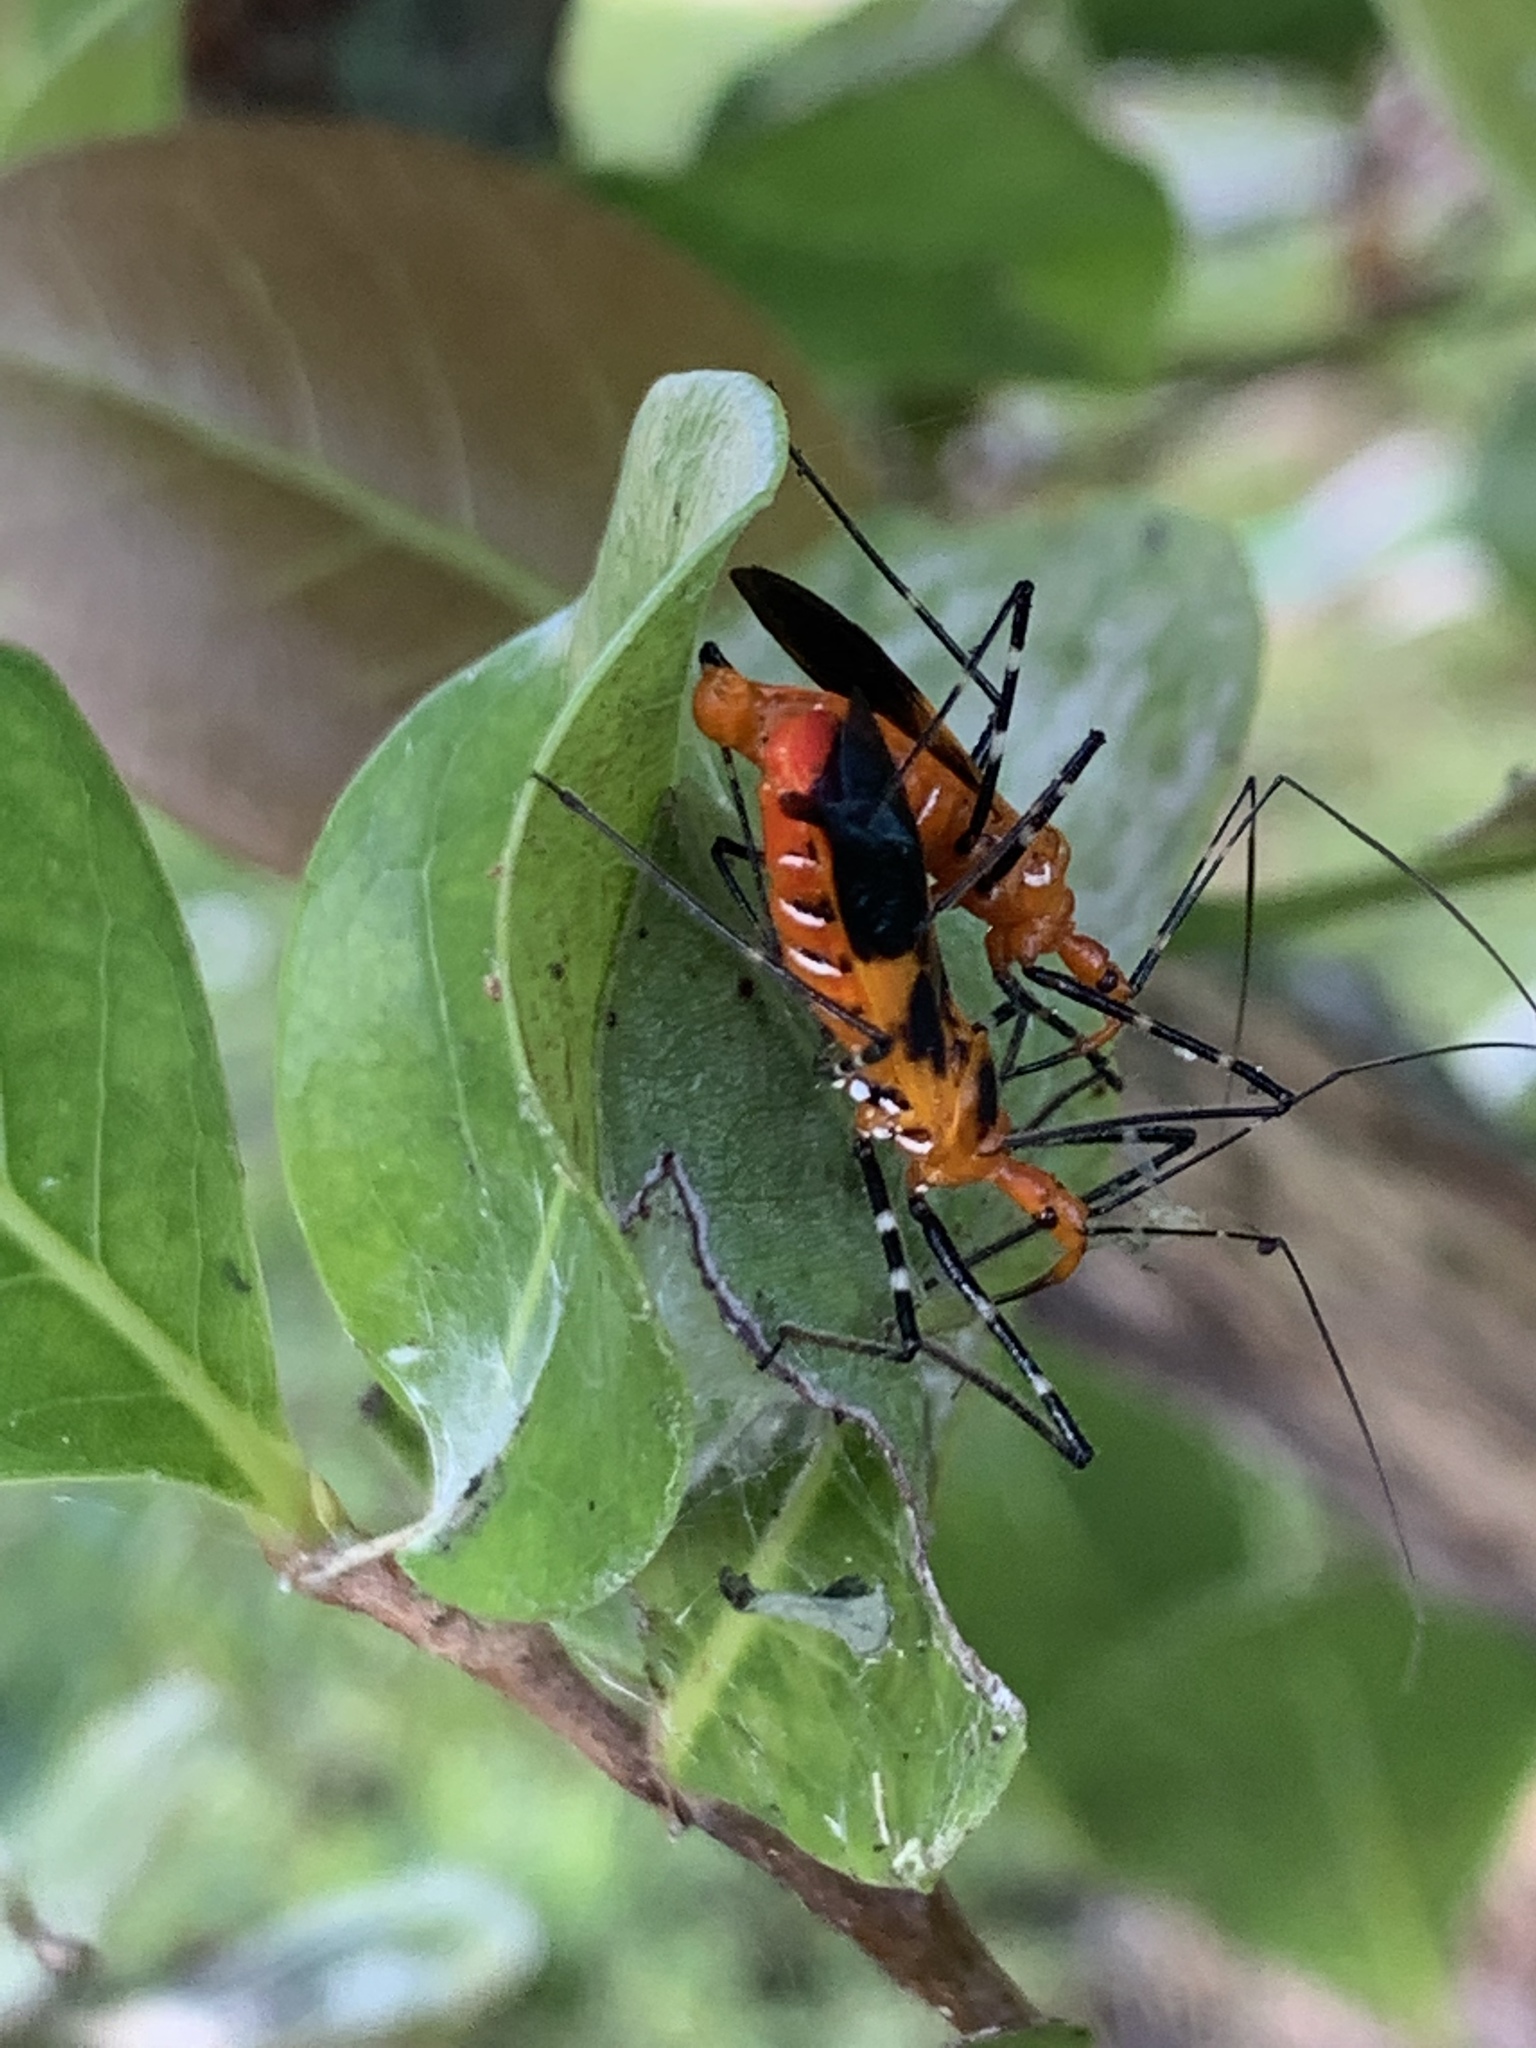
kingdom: Animalia
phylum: Arthropoda
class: Insecta
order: Hemiptera
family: Reduviidae
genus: Zelus
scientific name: Zelus longipes
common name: Milkweed assassin bug
